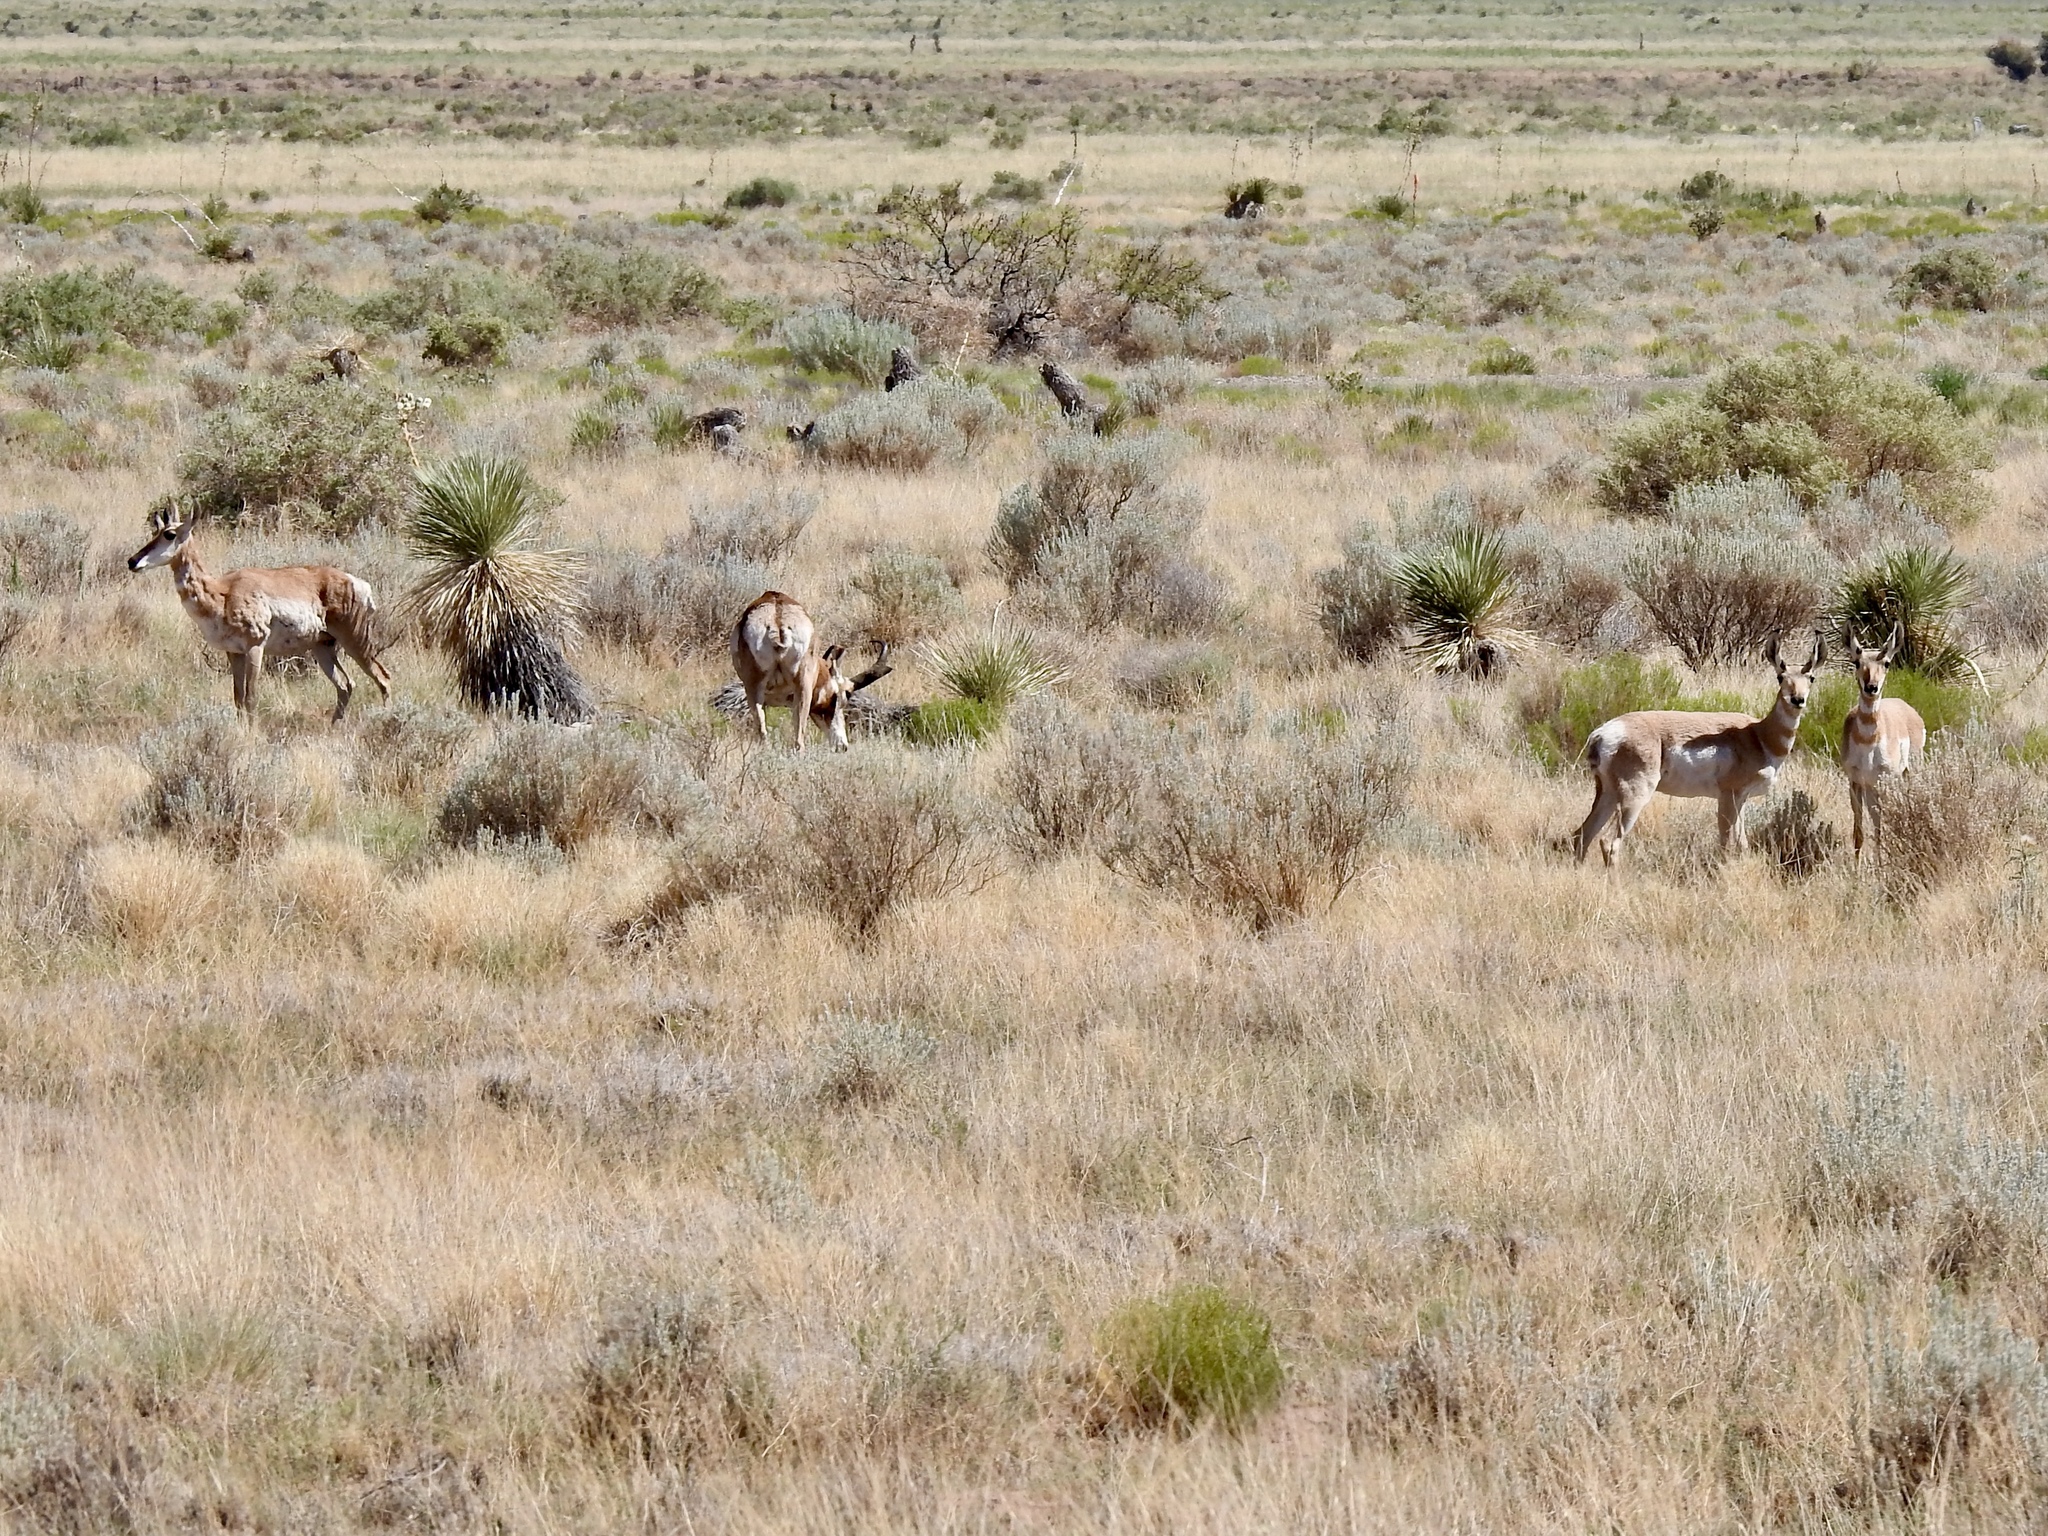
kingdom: Animalia
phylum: Chordata
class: Mammalia
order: Artiodactyla
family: Antilocapridae
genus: Antilocapra
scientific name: Antilocapra americana
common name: Pronghorn
